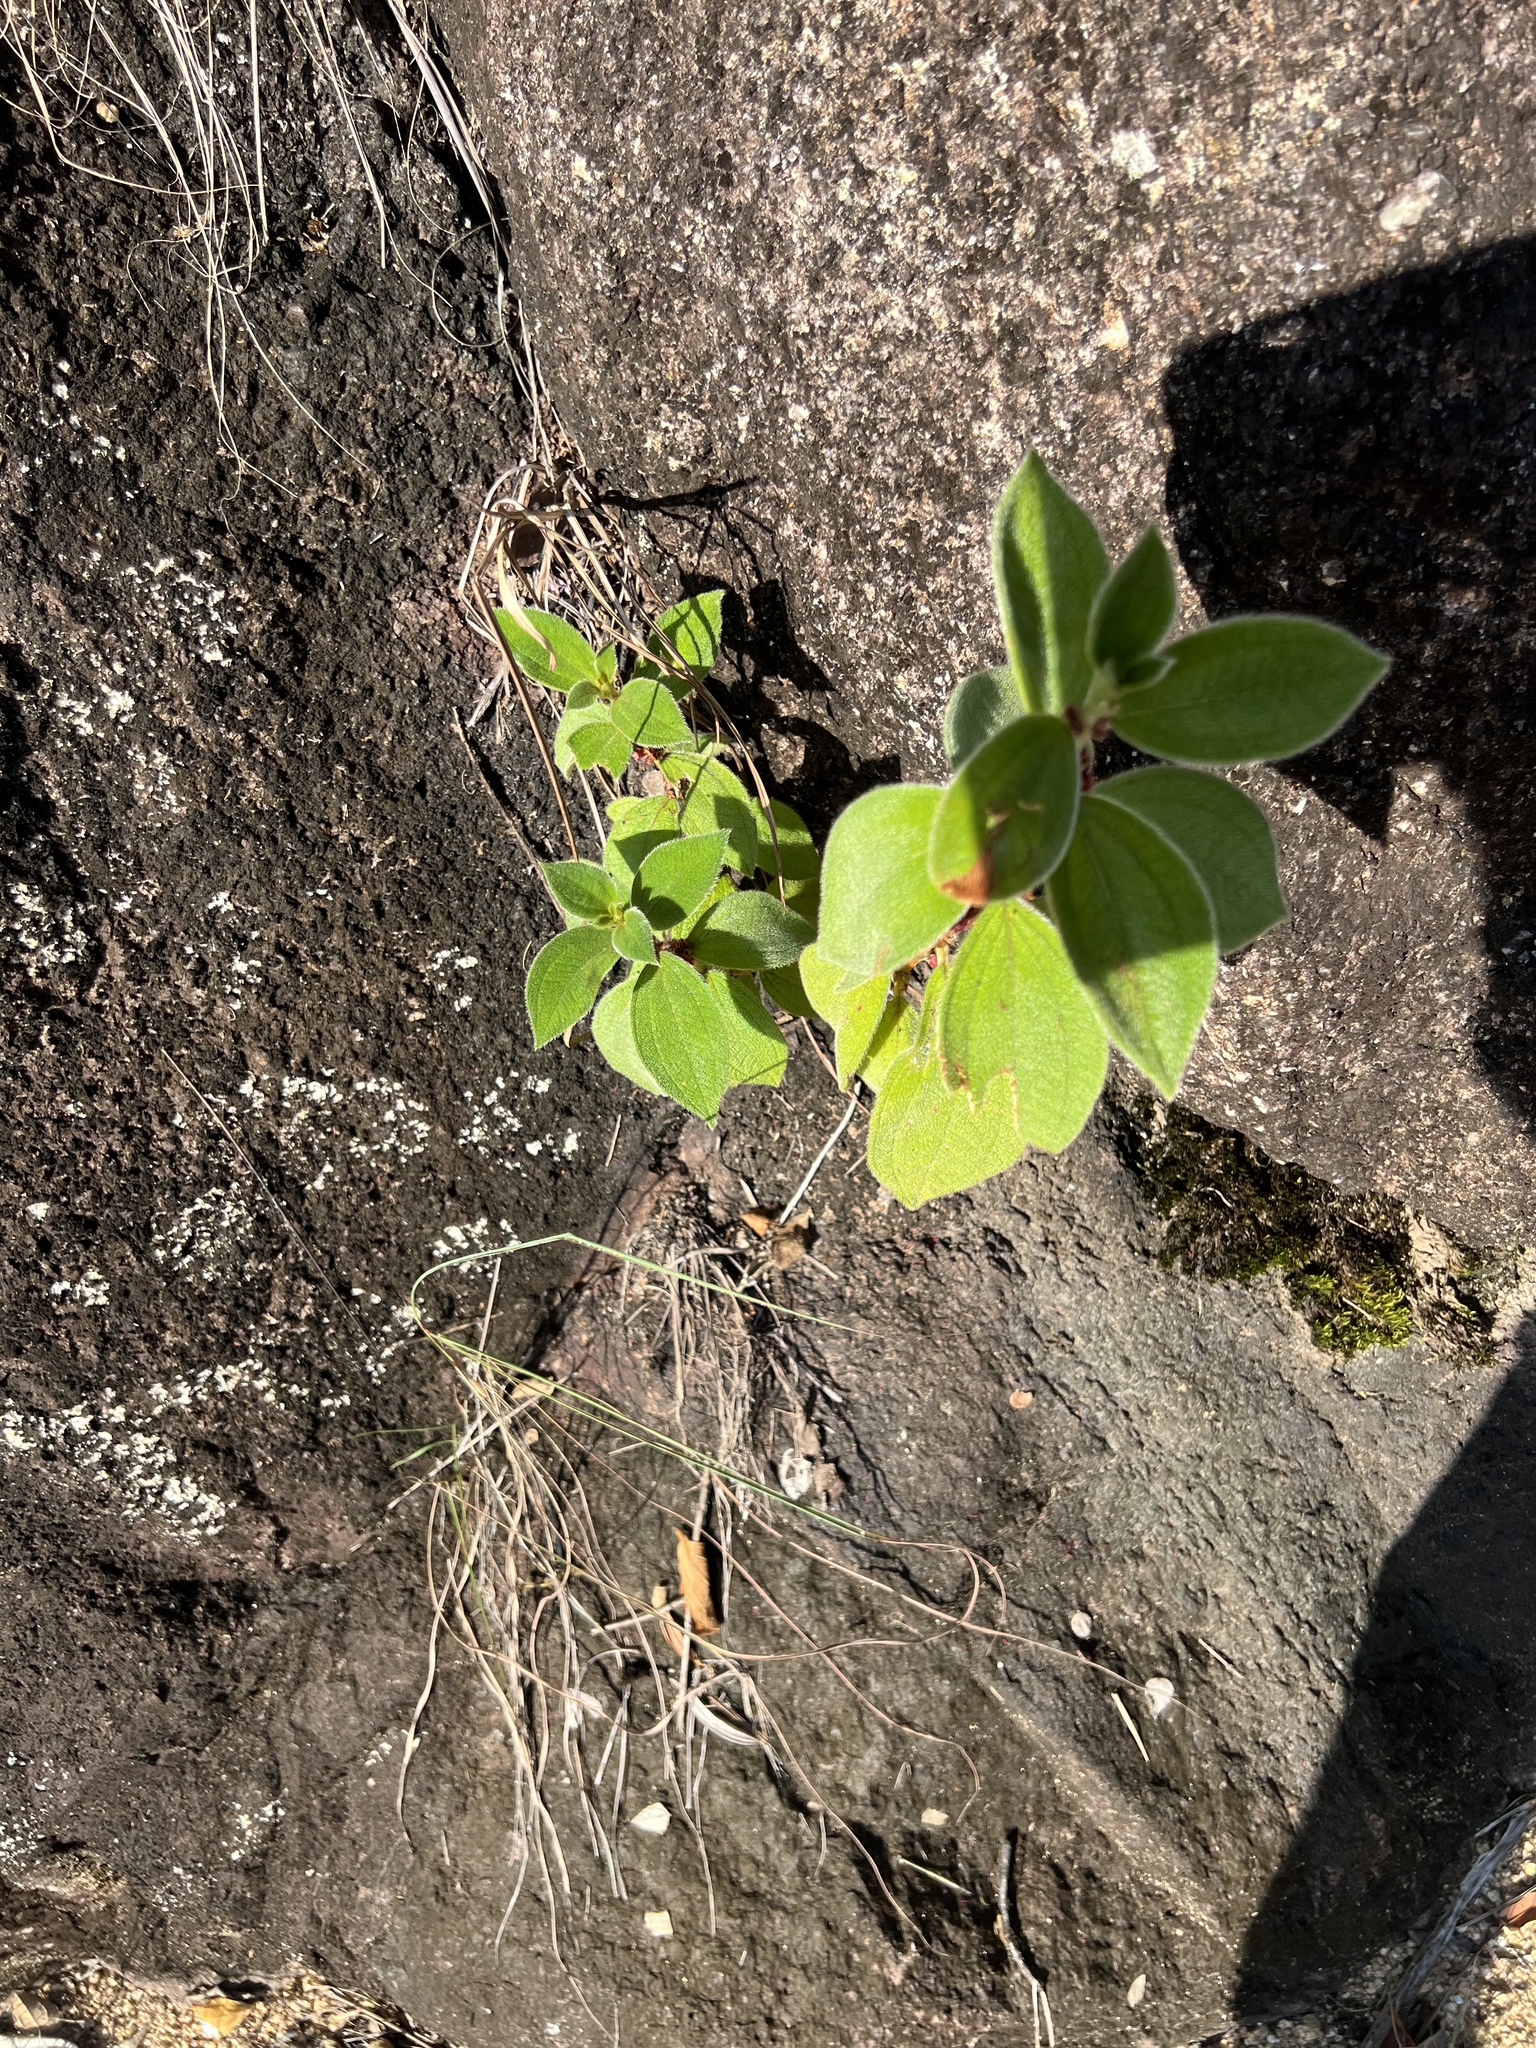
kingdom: Plantae
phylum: Tracheophyta
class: Magnoliopsida
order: Myrtales
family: Melastomataceae
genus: Miconia
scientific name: Miconia sericea
